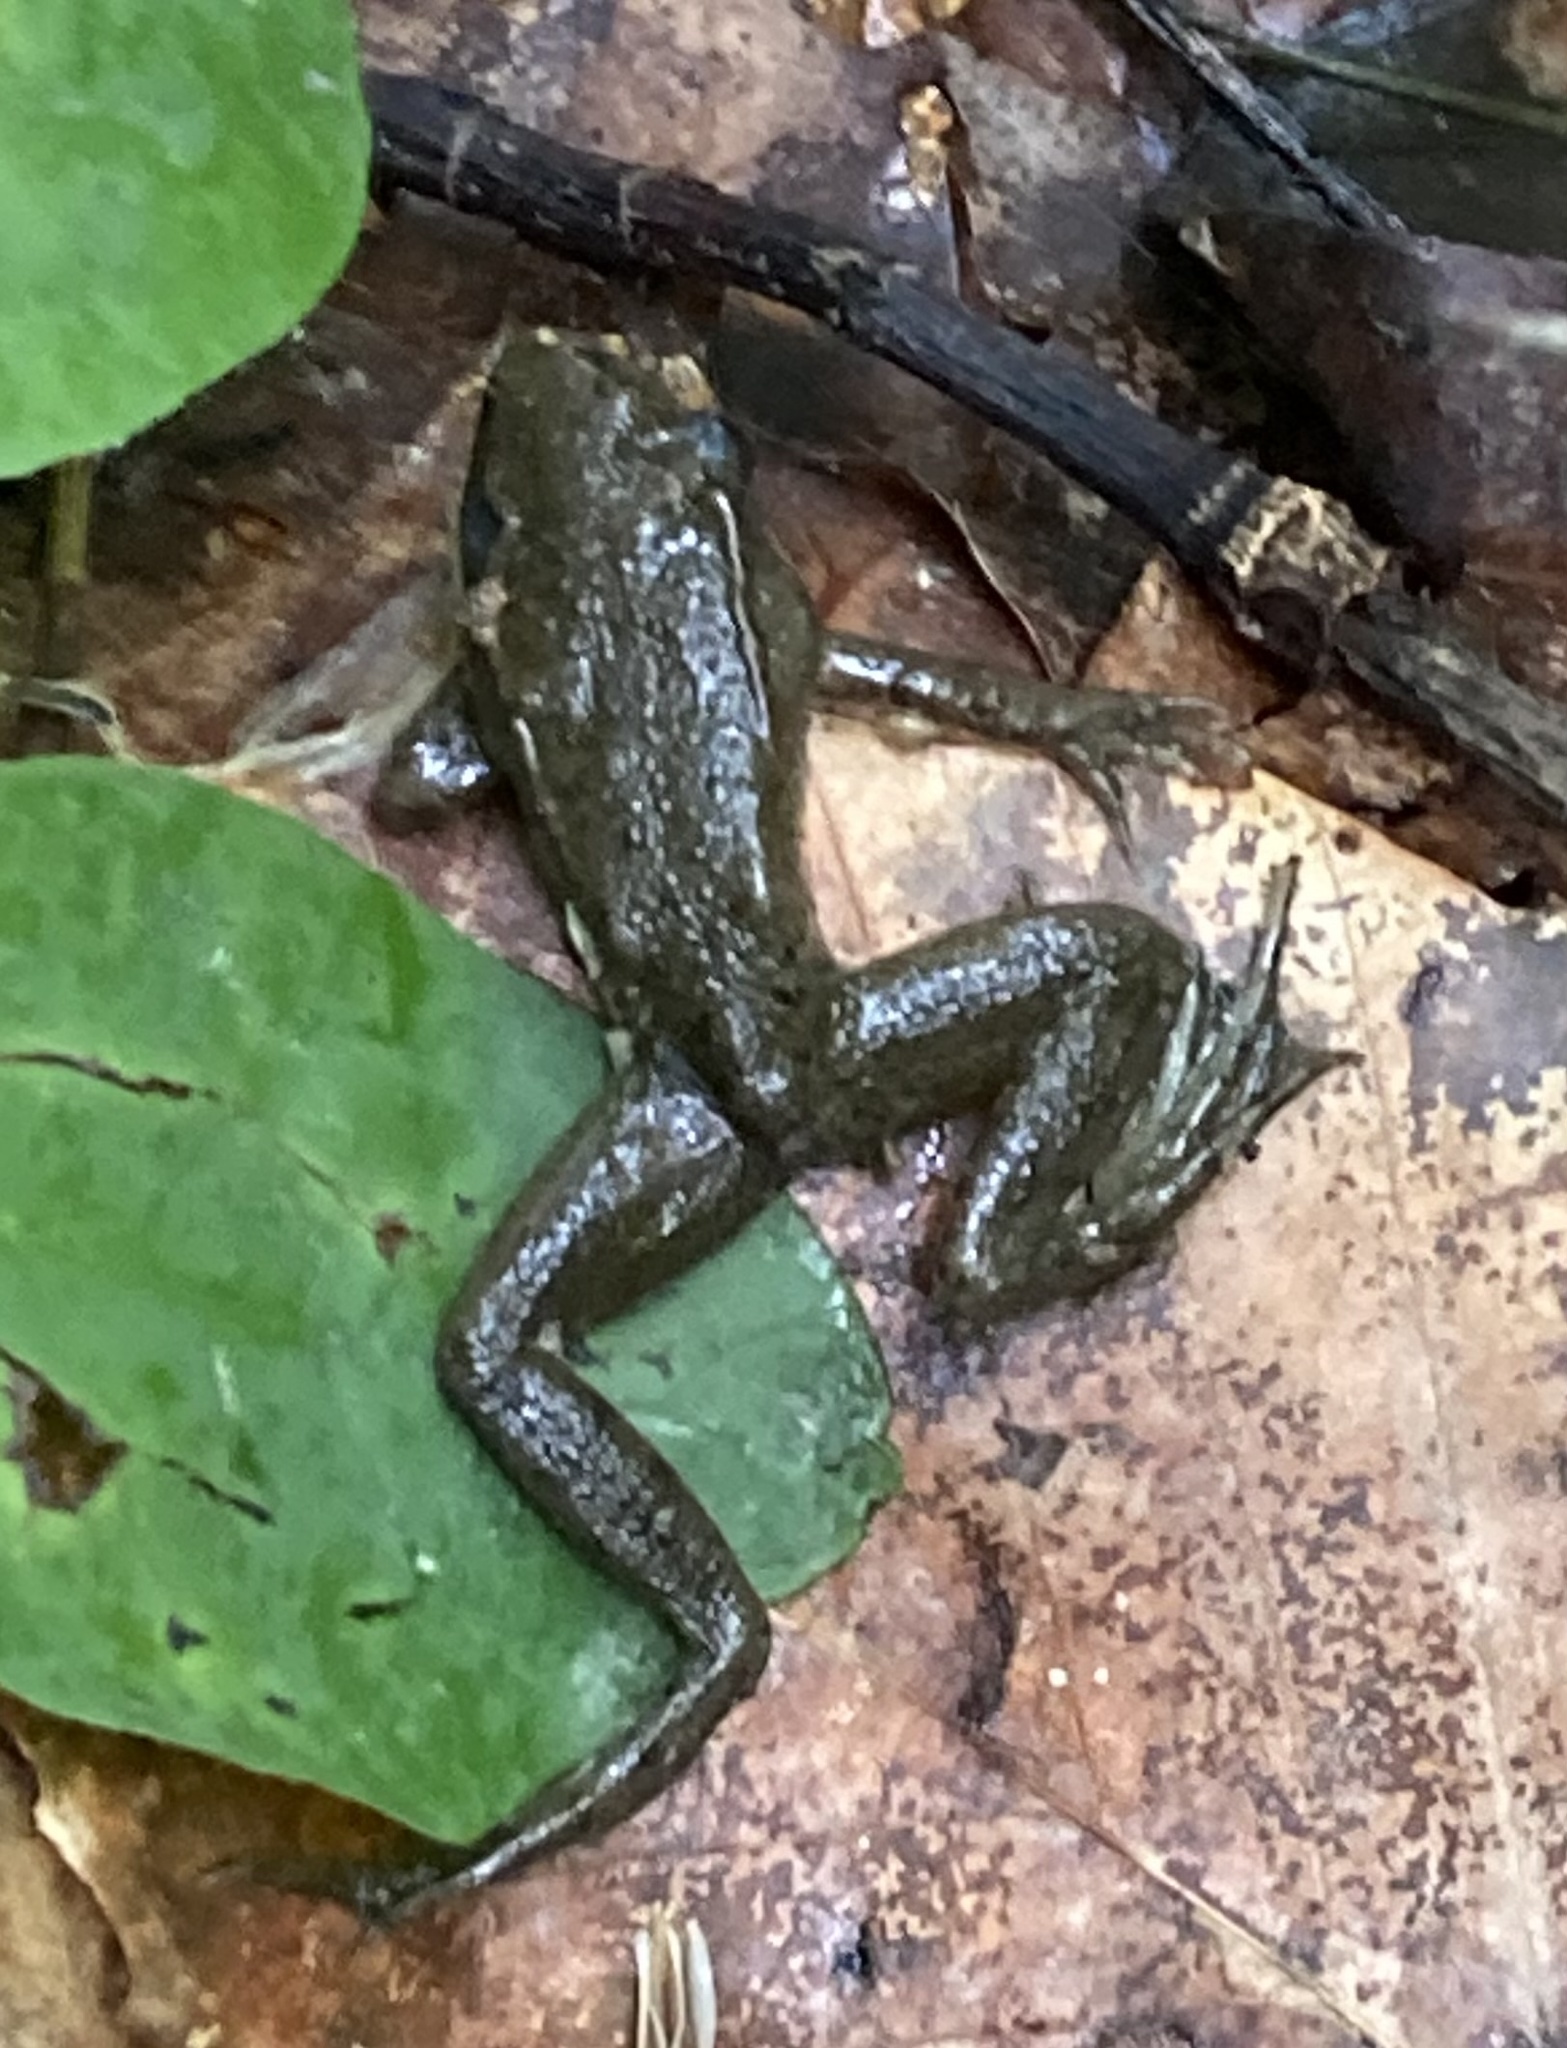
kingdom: Animalia
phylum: Chordata
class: Amphibia
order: Anura
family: Ranidae
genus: Lithobates
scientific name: Lithobates clamitans
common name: Green frog
